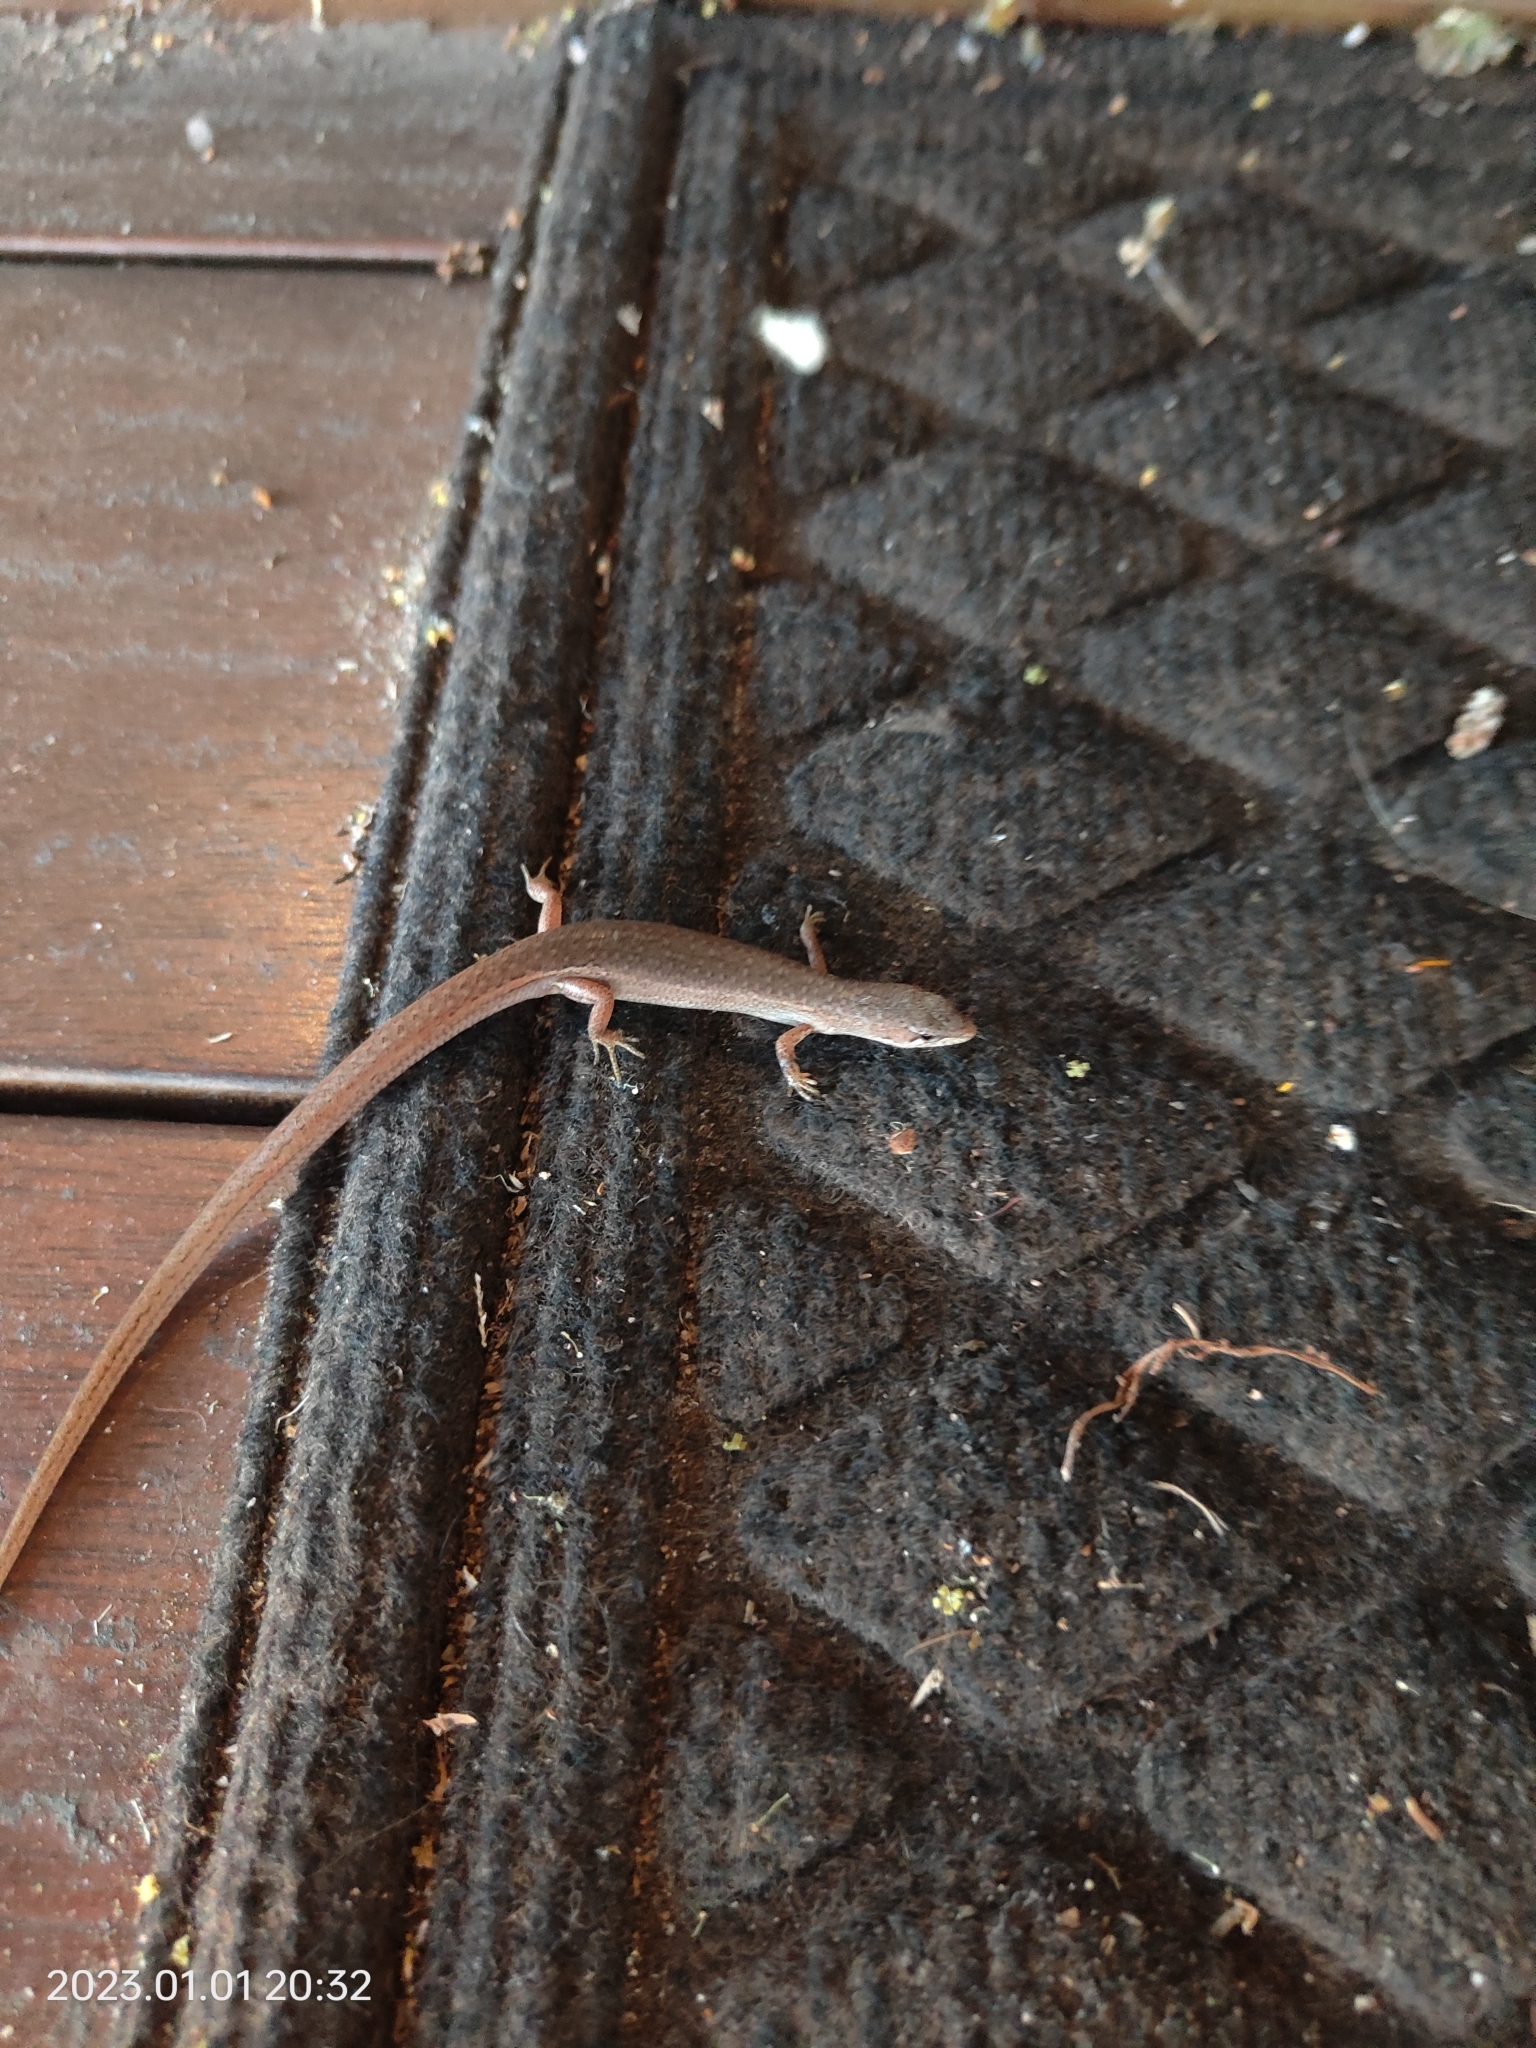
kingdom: Animalia
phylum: Chordata
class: Squamata
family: Scincidae
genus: Saproscincus
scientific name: Saproscincus mustelinus
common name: Southern weasel skink
